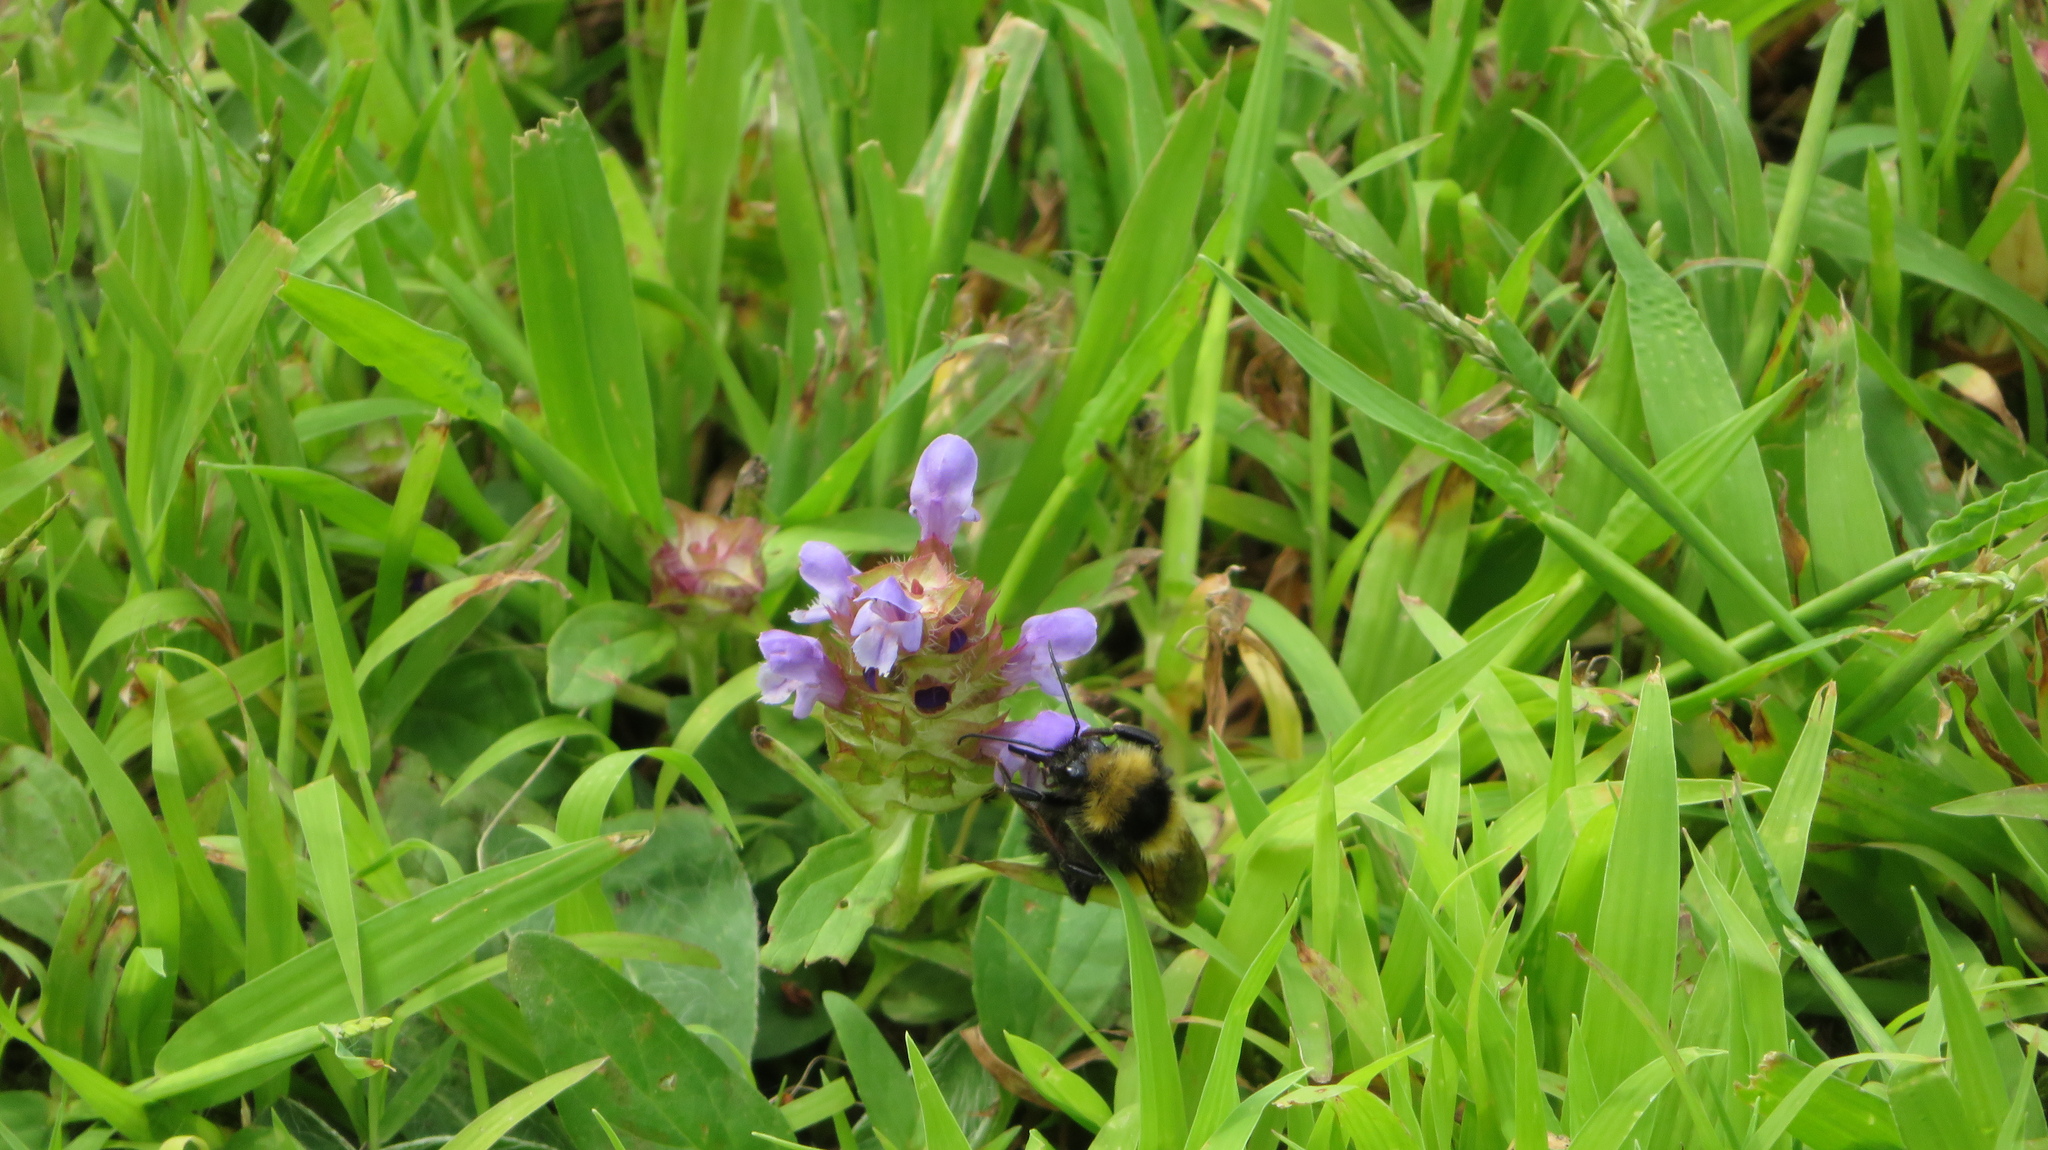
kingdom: Animalia
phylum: Arthropoda
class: Insecta
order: Hymenoptera
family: Apidae
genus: Bombus
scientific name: Bombus borealis
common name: Northern amber bumble bee
